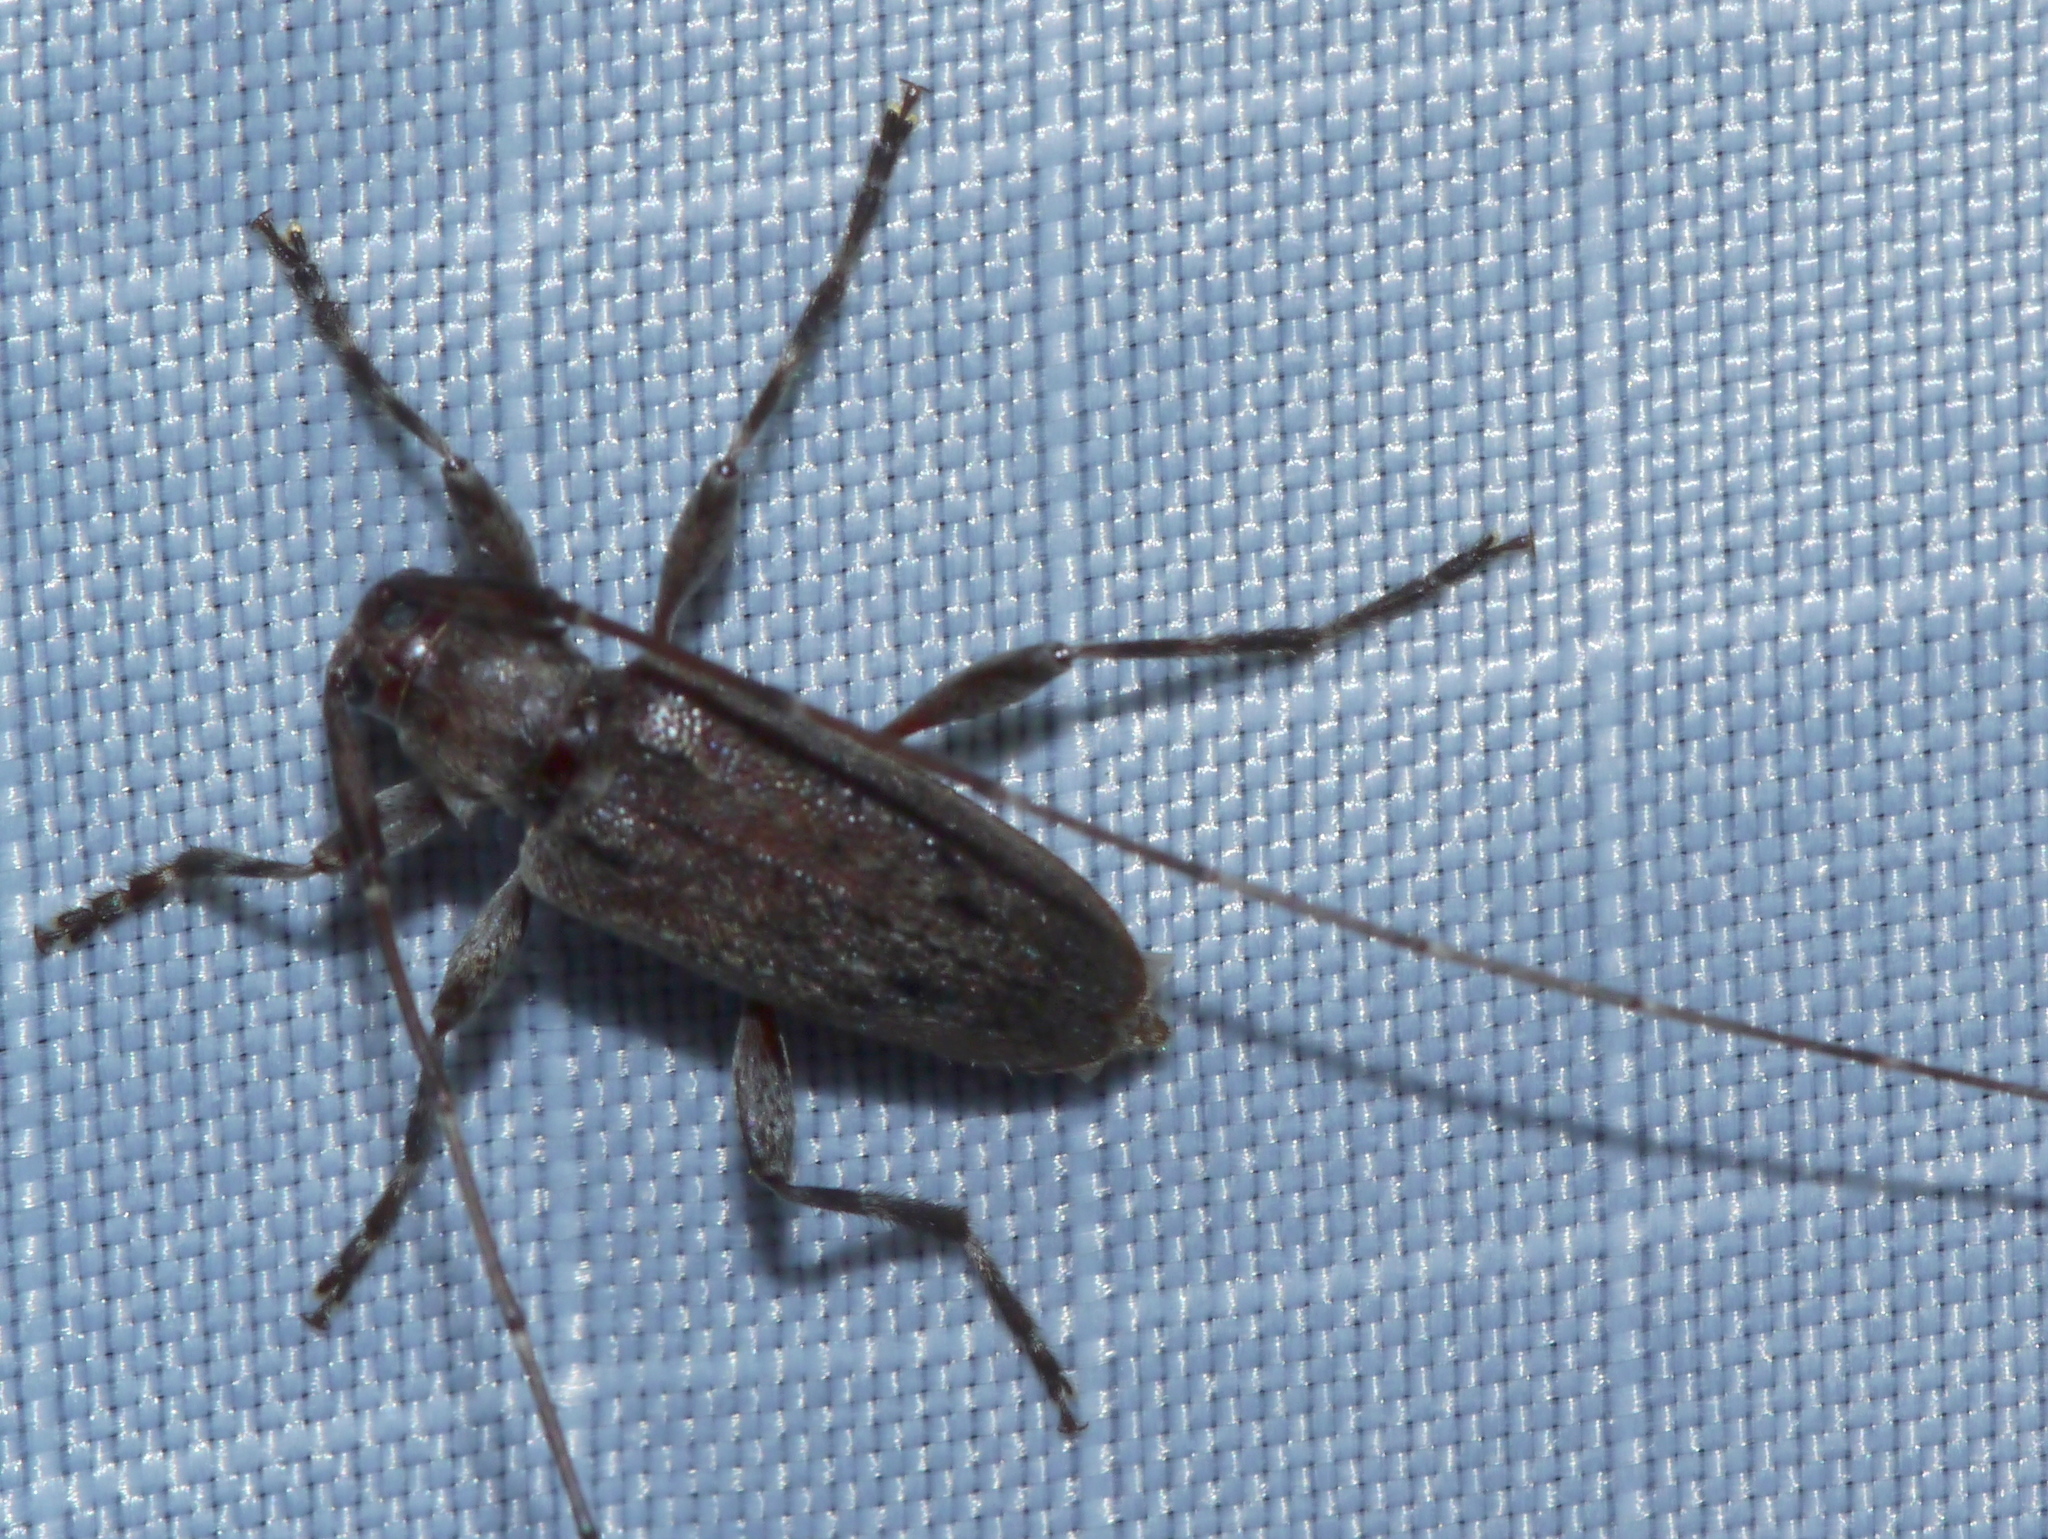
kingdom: Animalia
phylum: Arthropoda
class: Insecta
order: Coleoptera
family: Cerambycidae
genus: Eutrichillus
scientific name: Eutrichillus biguttatus
